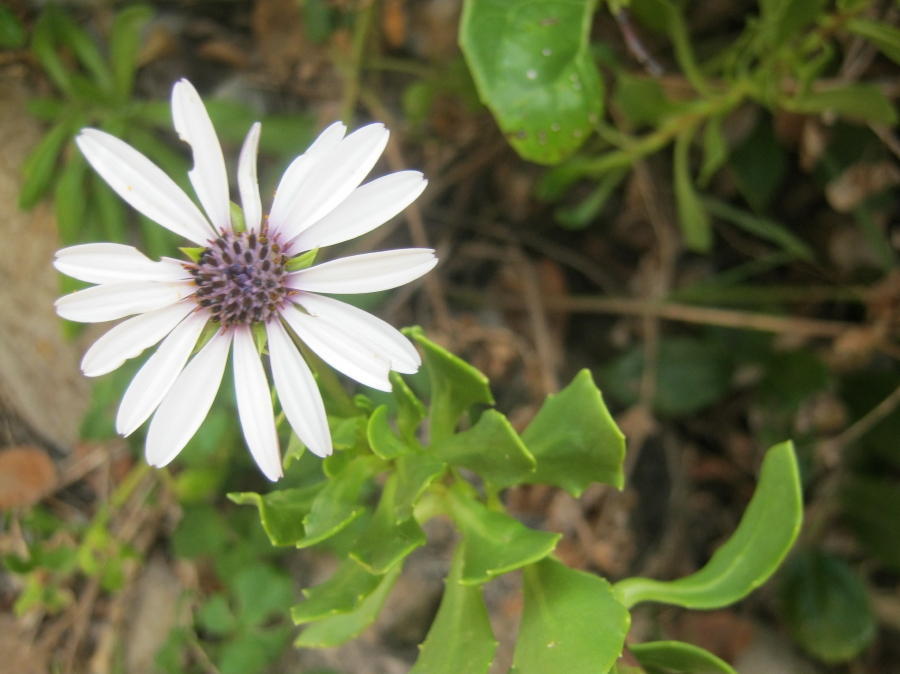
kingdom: Plantae
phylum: Tracheophyta
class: Magnoliopsida
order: Asterales
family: Asteraceae
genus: Dimorphotheca
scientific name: Dimorphotheca fruticosa
